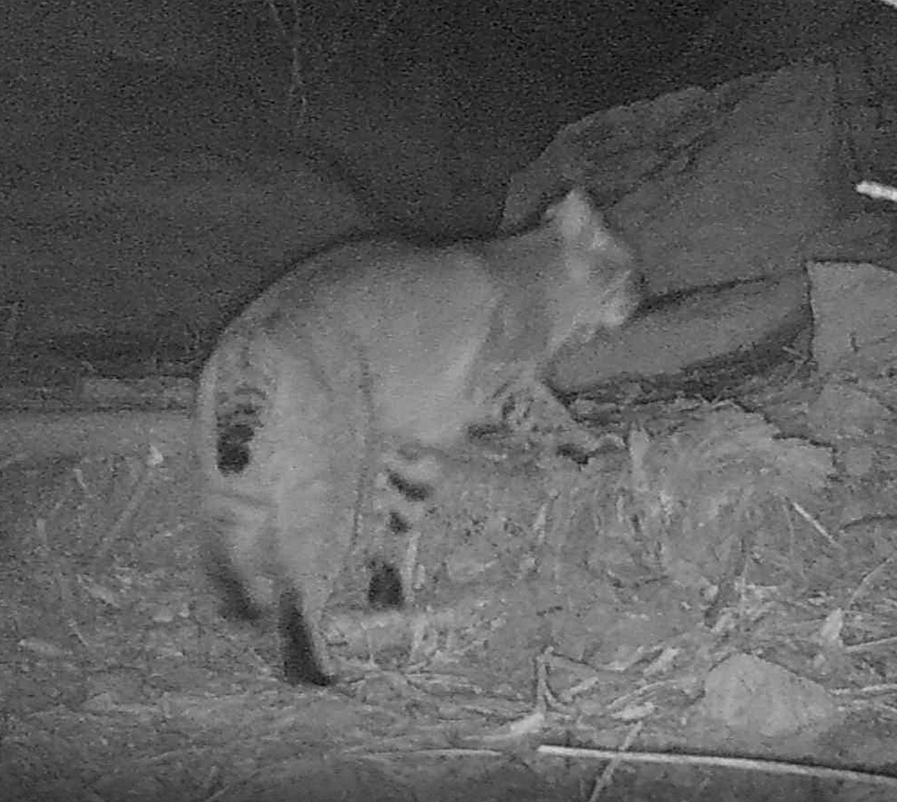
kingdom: Animalia
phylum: Chordata
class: Mammalia
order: Carnivora
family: Felidae
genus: Lynx
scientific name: Lynx rufus
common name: Bobcat
